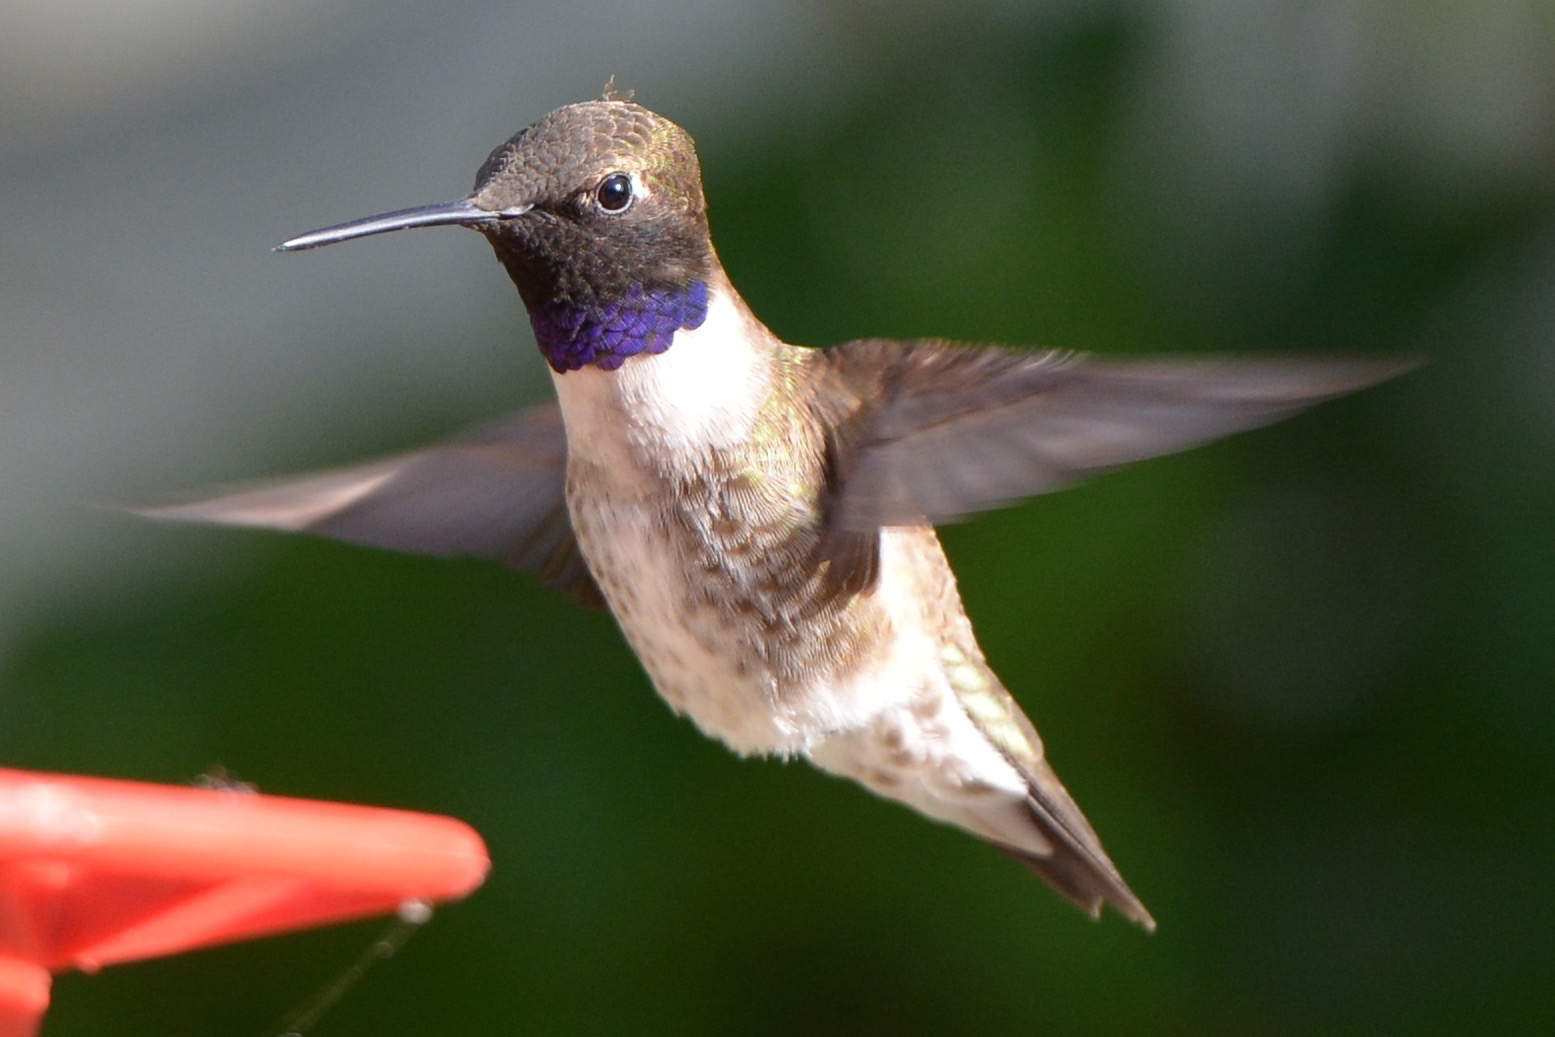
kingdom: Animalia
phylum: Chordata
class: Aves
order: Apodiformes
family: Trochilidae
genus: Archilochus
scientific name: Archilochus alexandri
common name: Black-chinned hummingbird
